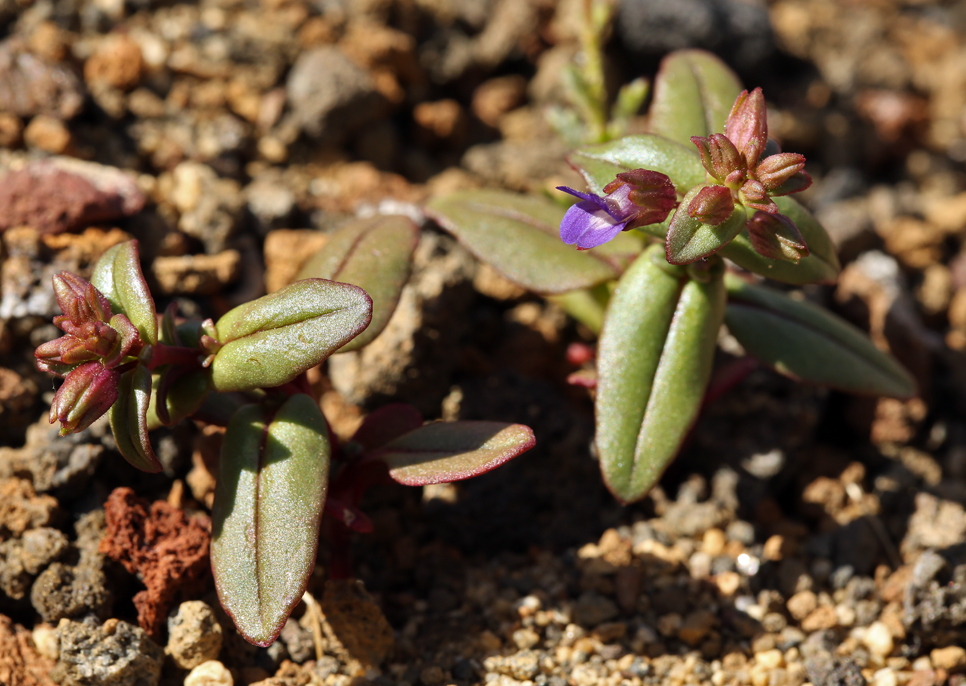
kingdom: Plantae
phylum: Tracheophyta
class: Magnoliopsida
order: Lamiales
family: Plantaginaceae
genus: Collinsia
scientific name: Collinsia callosa
